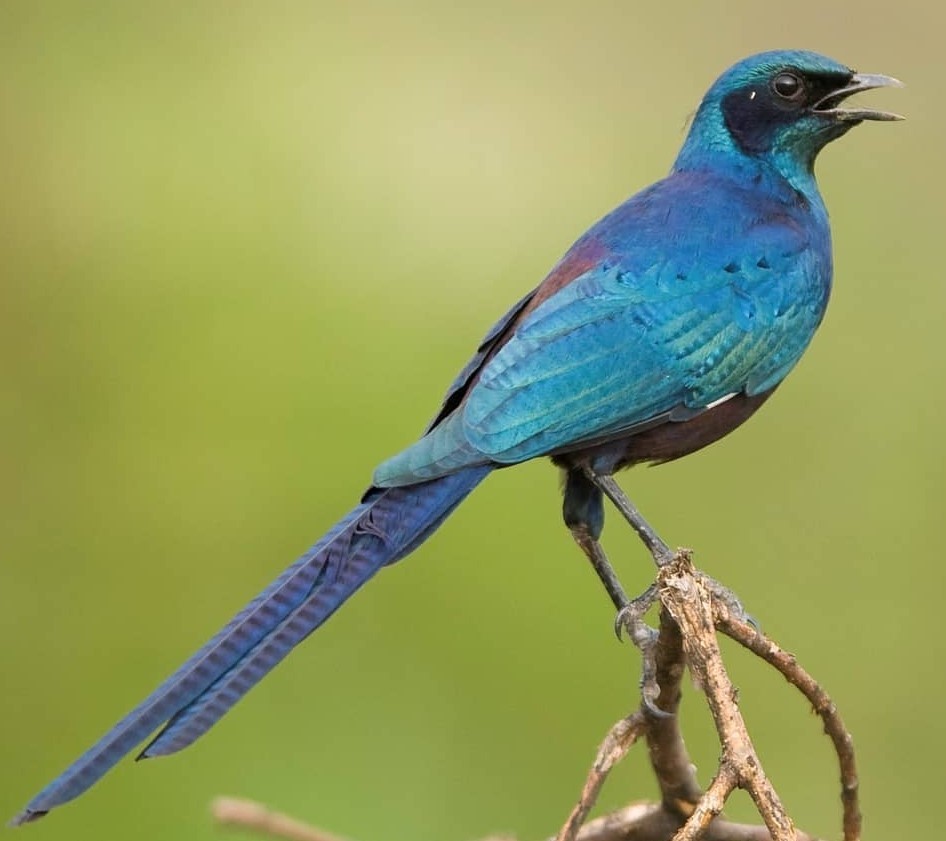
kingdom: Animalia
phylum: Chordata
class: Aves
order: Passeriformes
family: Sturnidae
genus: Lamprotornis
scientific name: Lamprotornis mevesii
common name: Meves's starling
